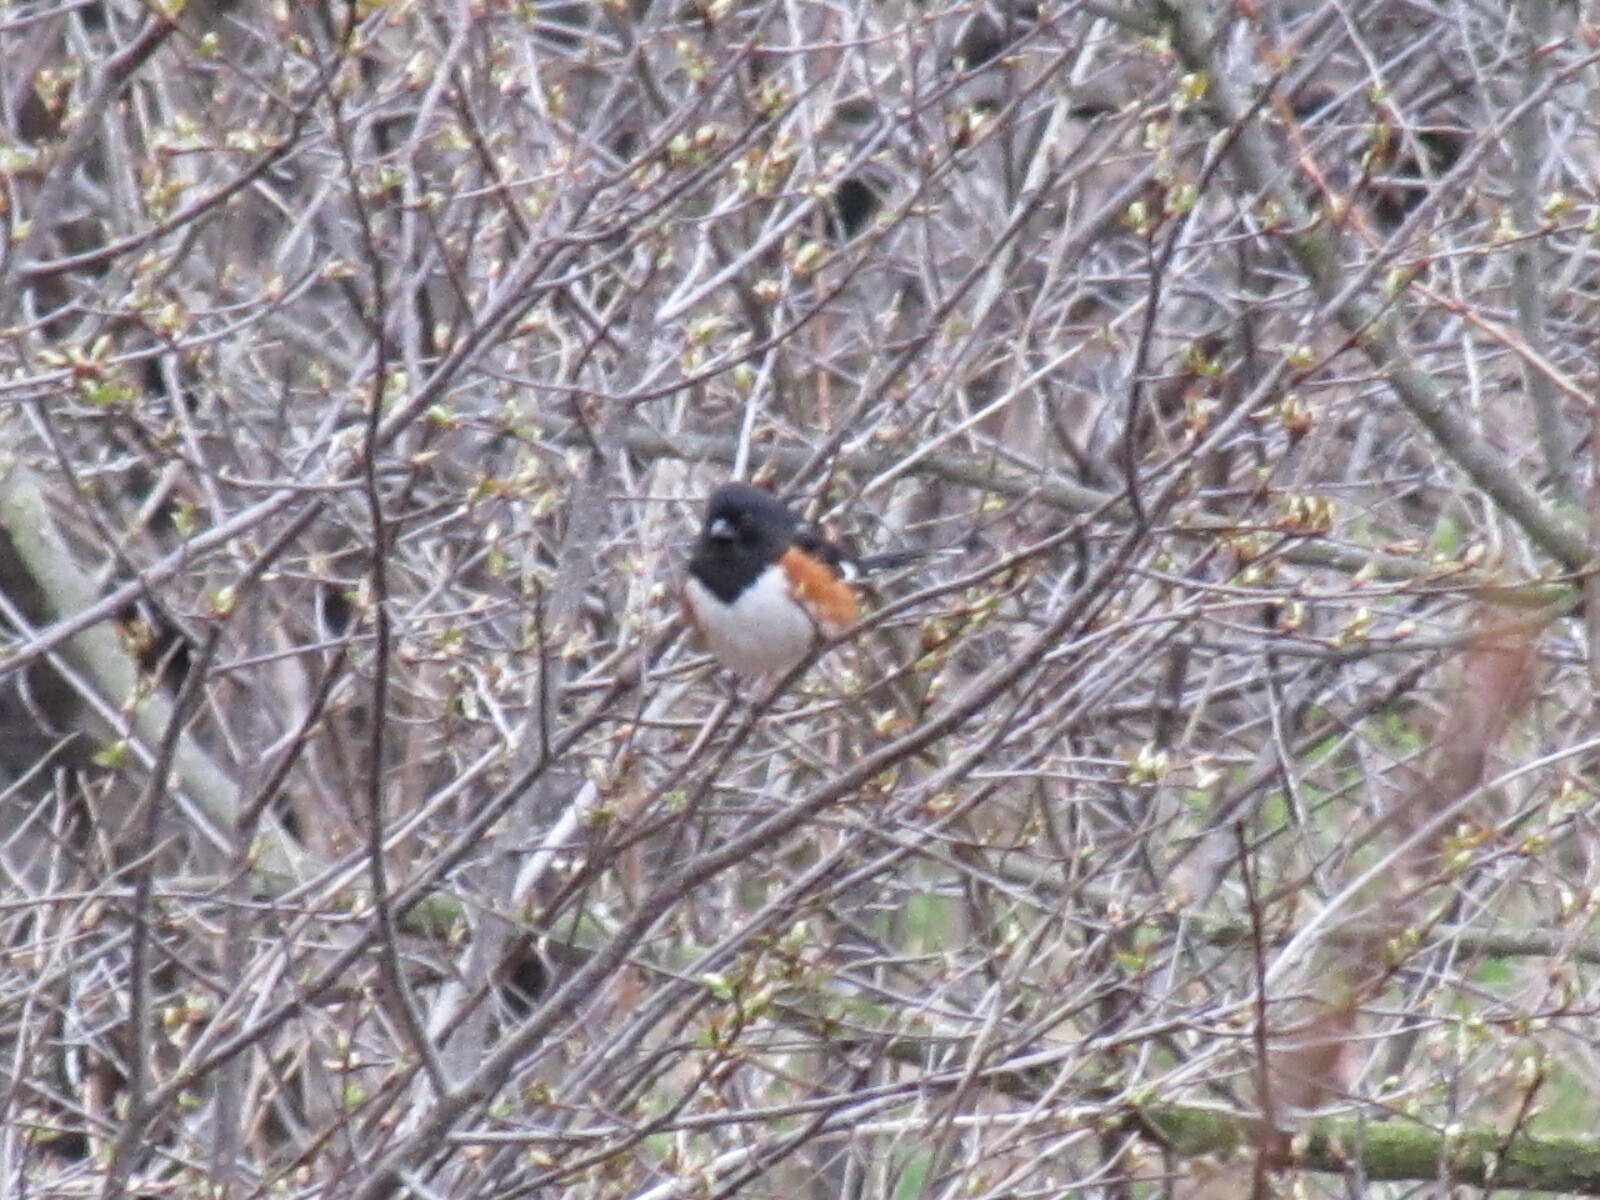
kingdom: Animalia
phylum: Chordata
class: Aves
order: Passeriformes
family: Passerellidae
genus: Pipilo
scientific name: Pipilo erythrophthalmus
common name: Eastern towhee
